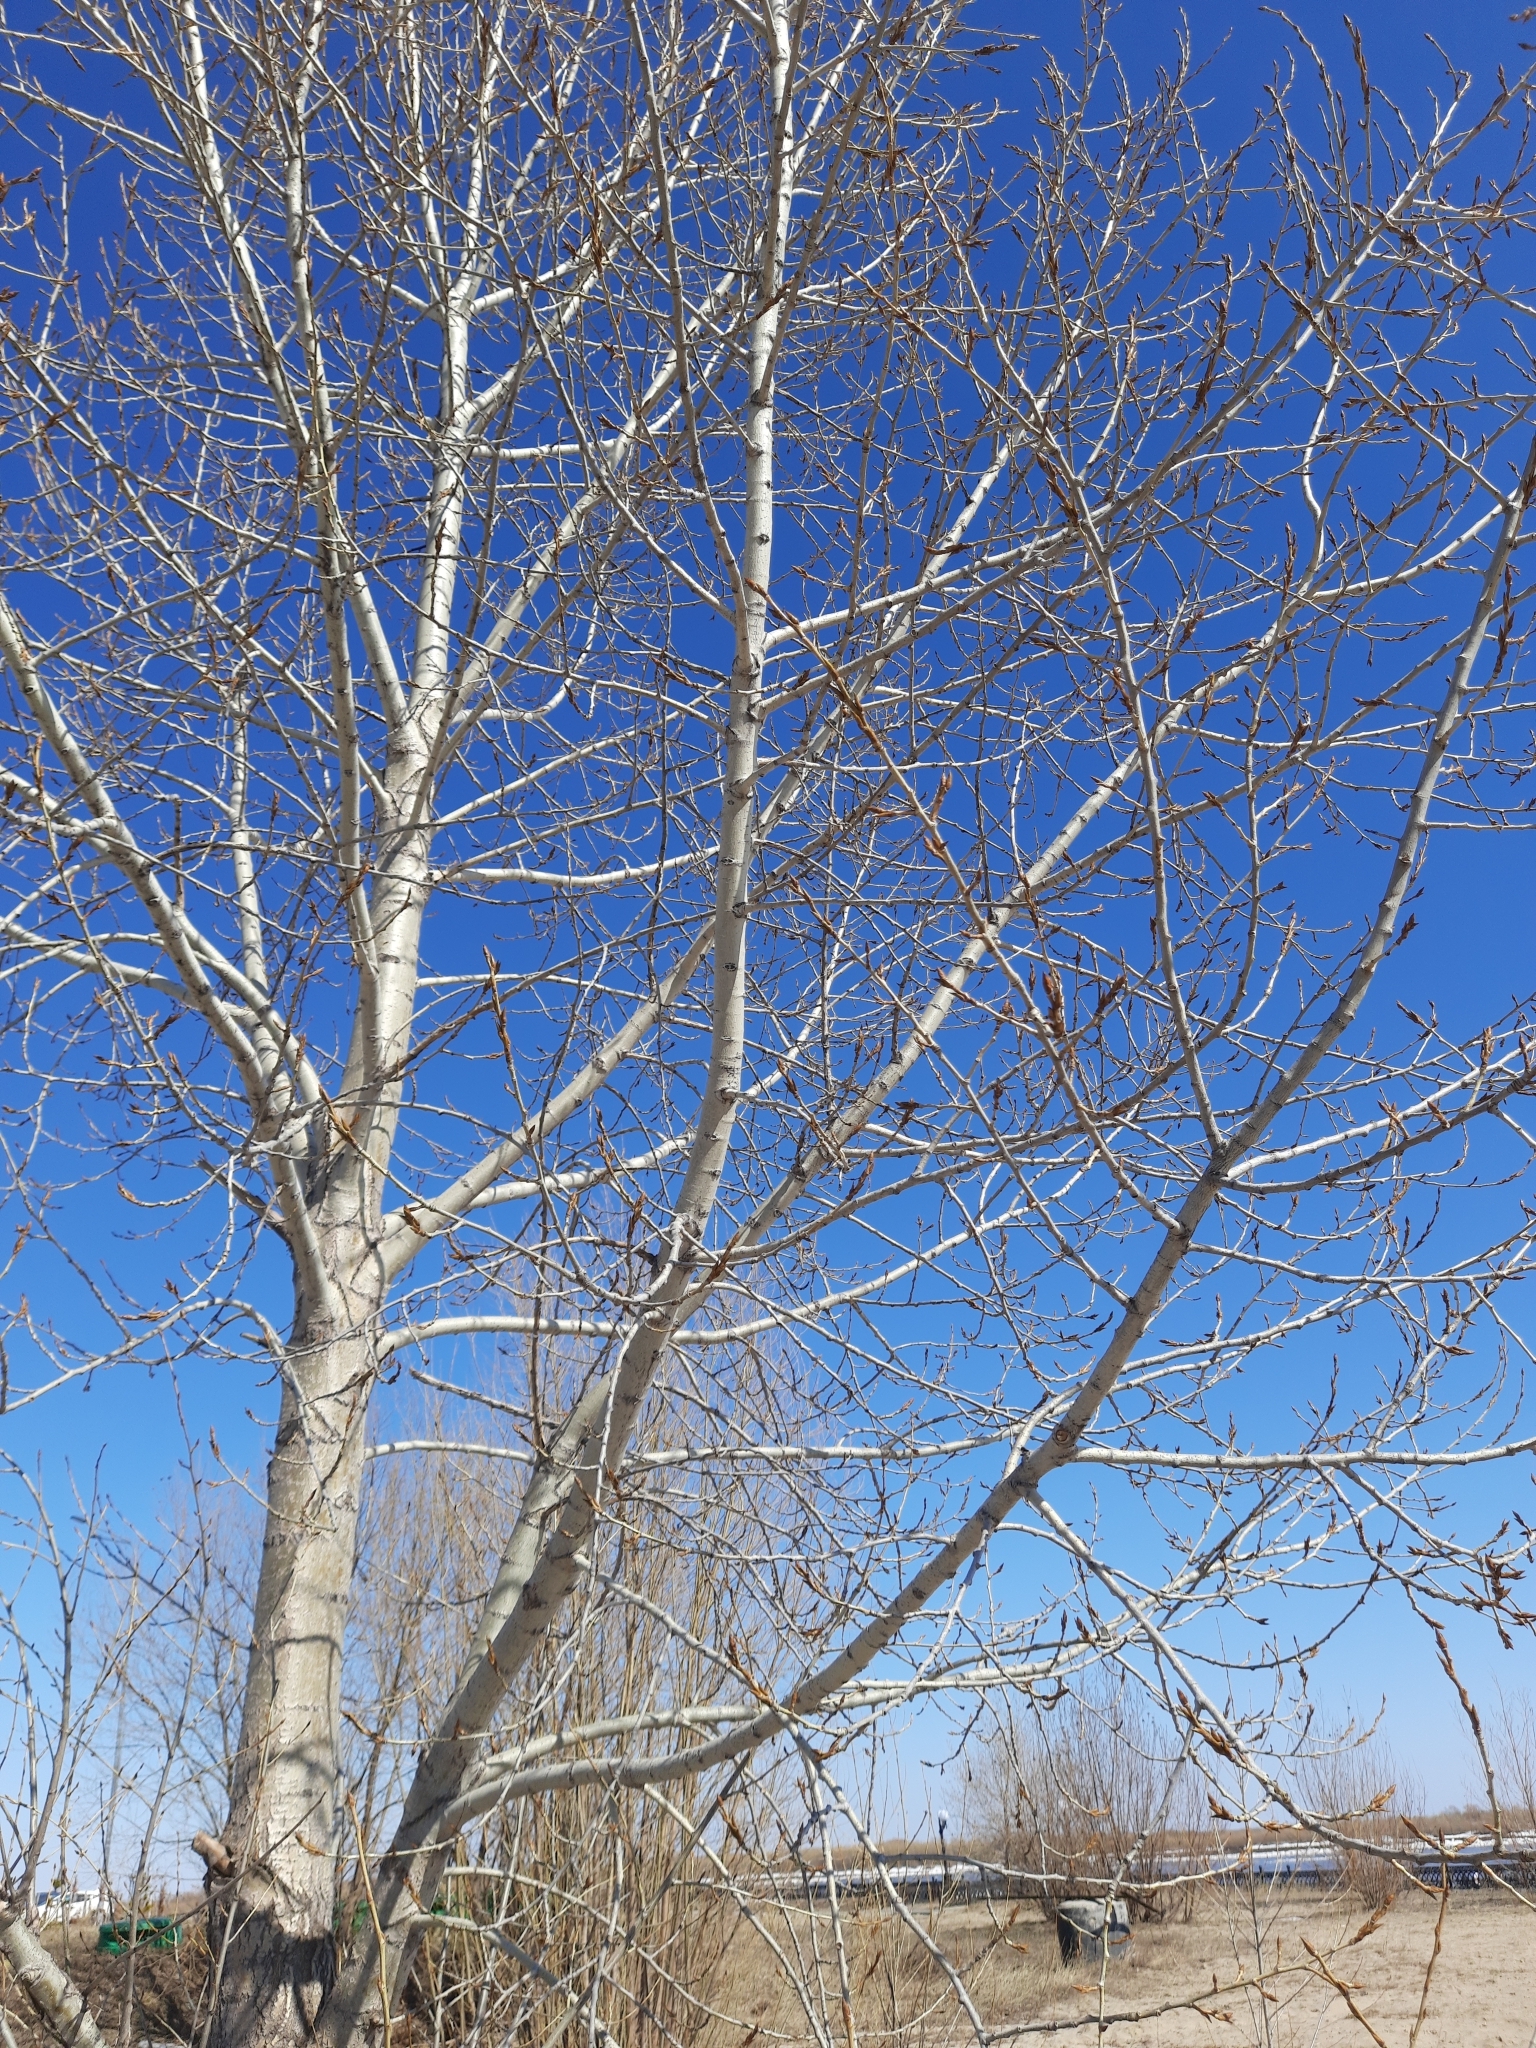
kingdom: Plantae
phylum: Tracheophyta
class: Magnoliopsida
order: Malpighiales
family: Salicaceae
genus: Populus
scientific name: Populus sibirica
